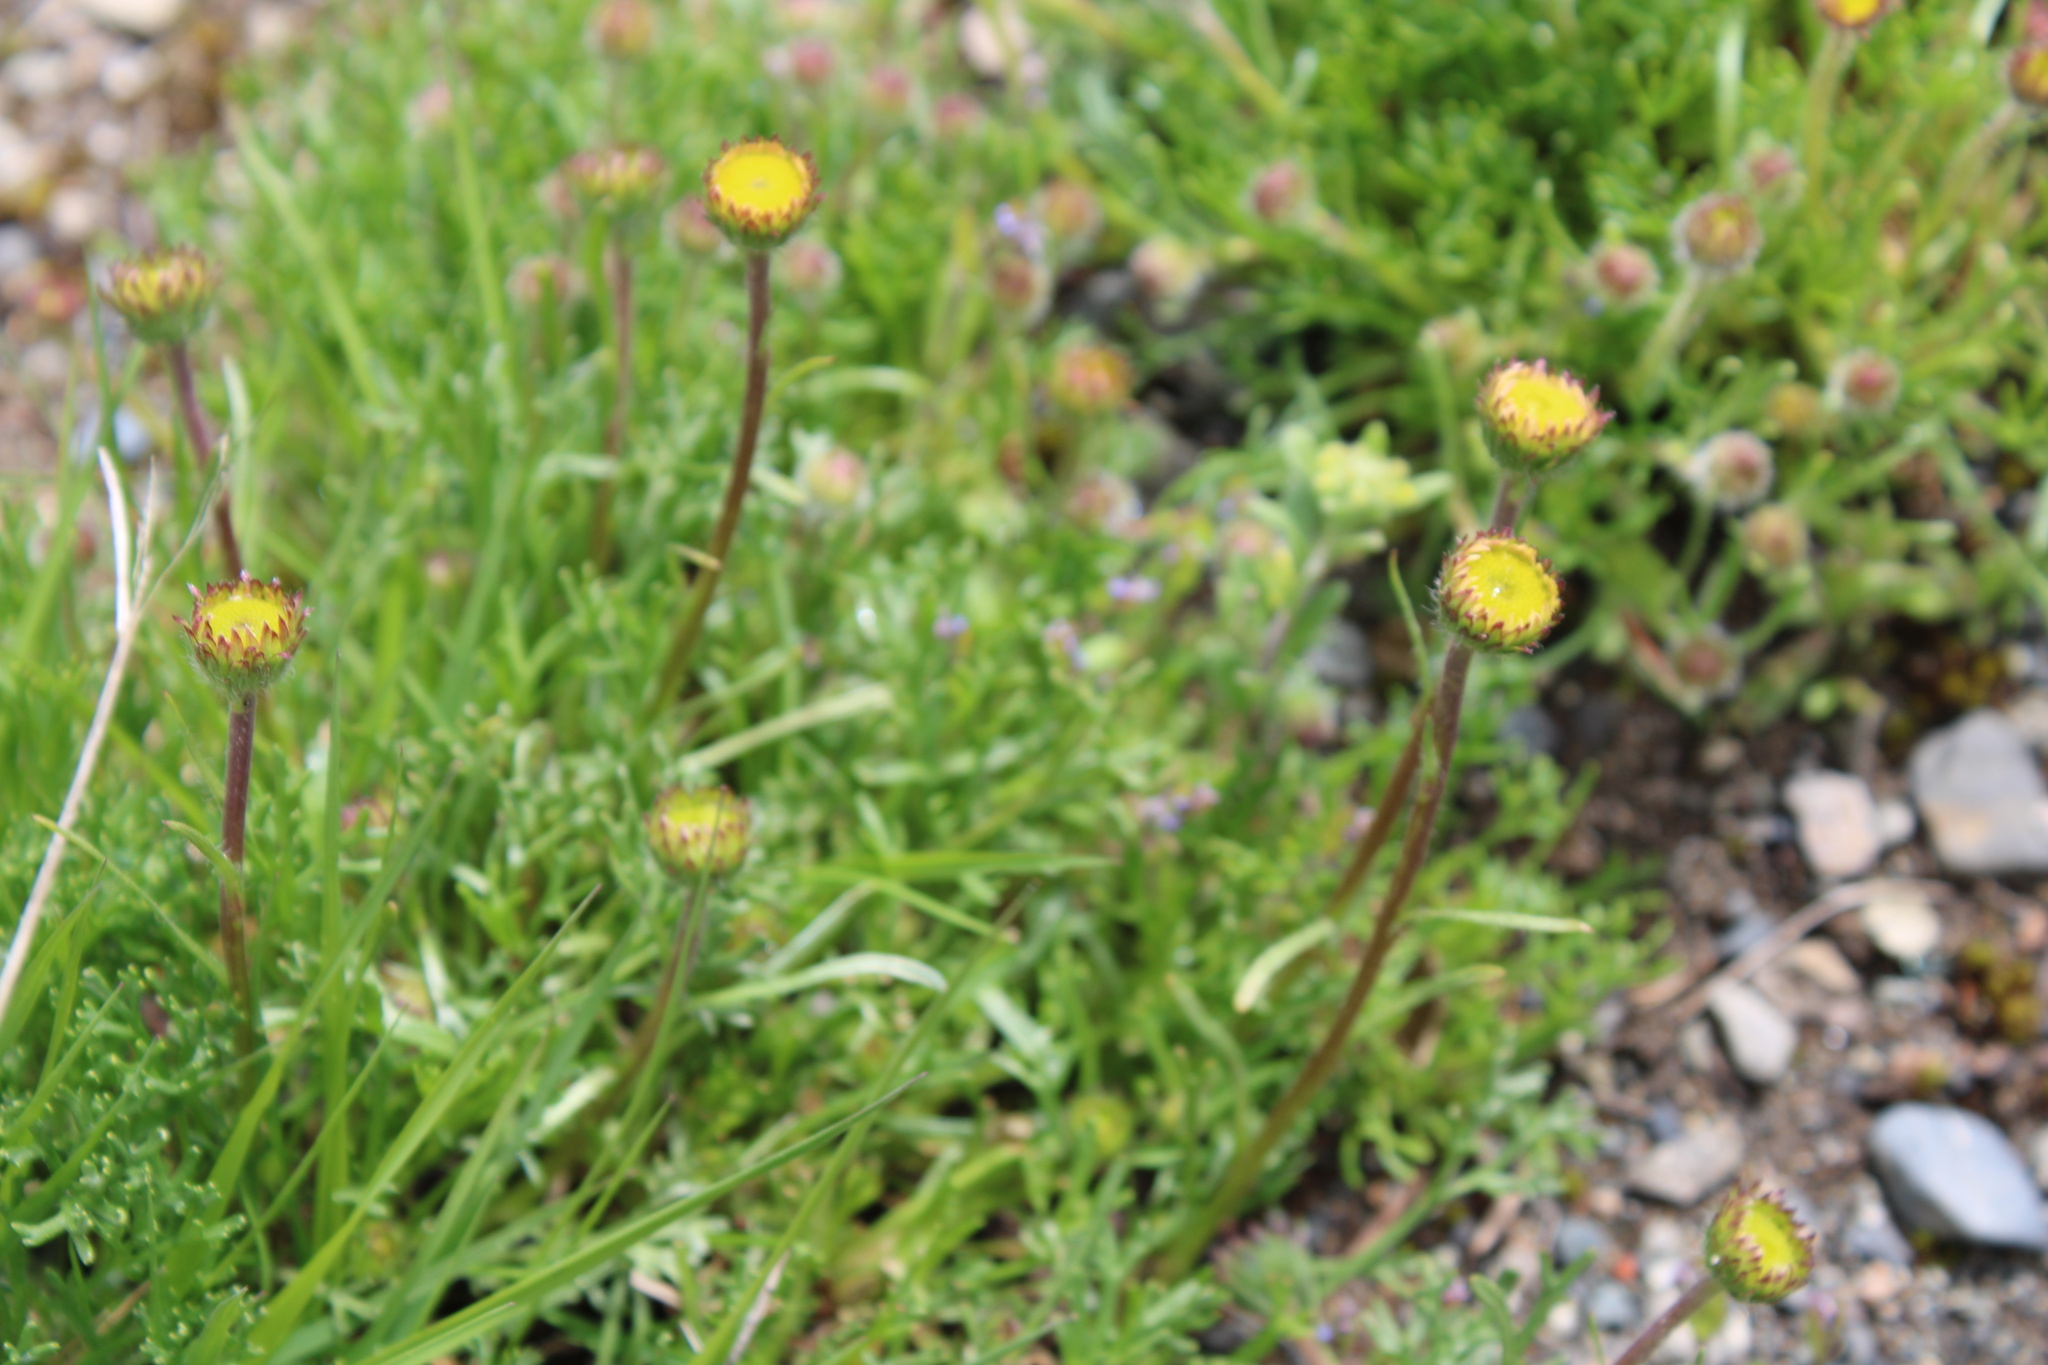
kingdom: Plantae
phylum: Tracheophyta
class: Magnoliopsida
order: Asterales
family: Asteraceae
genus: Erigeron
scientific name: Erigeron compositus
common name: Dwarf mountain fleabane
